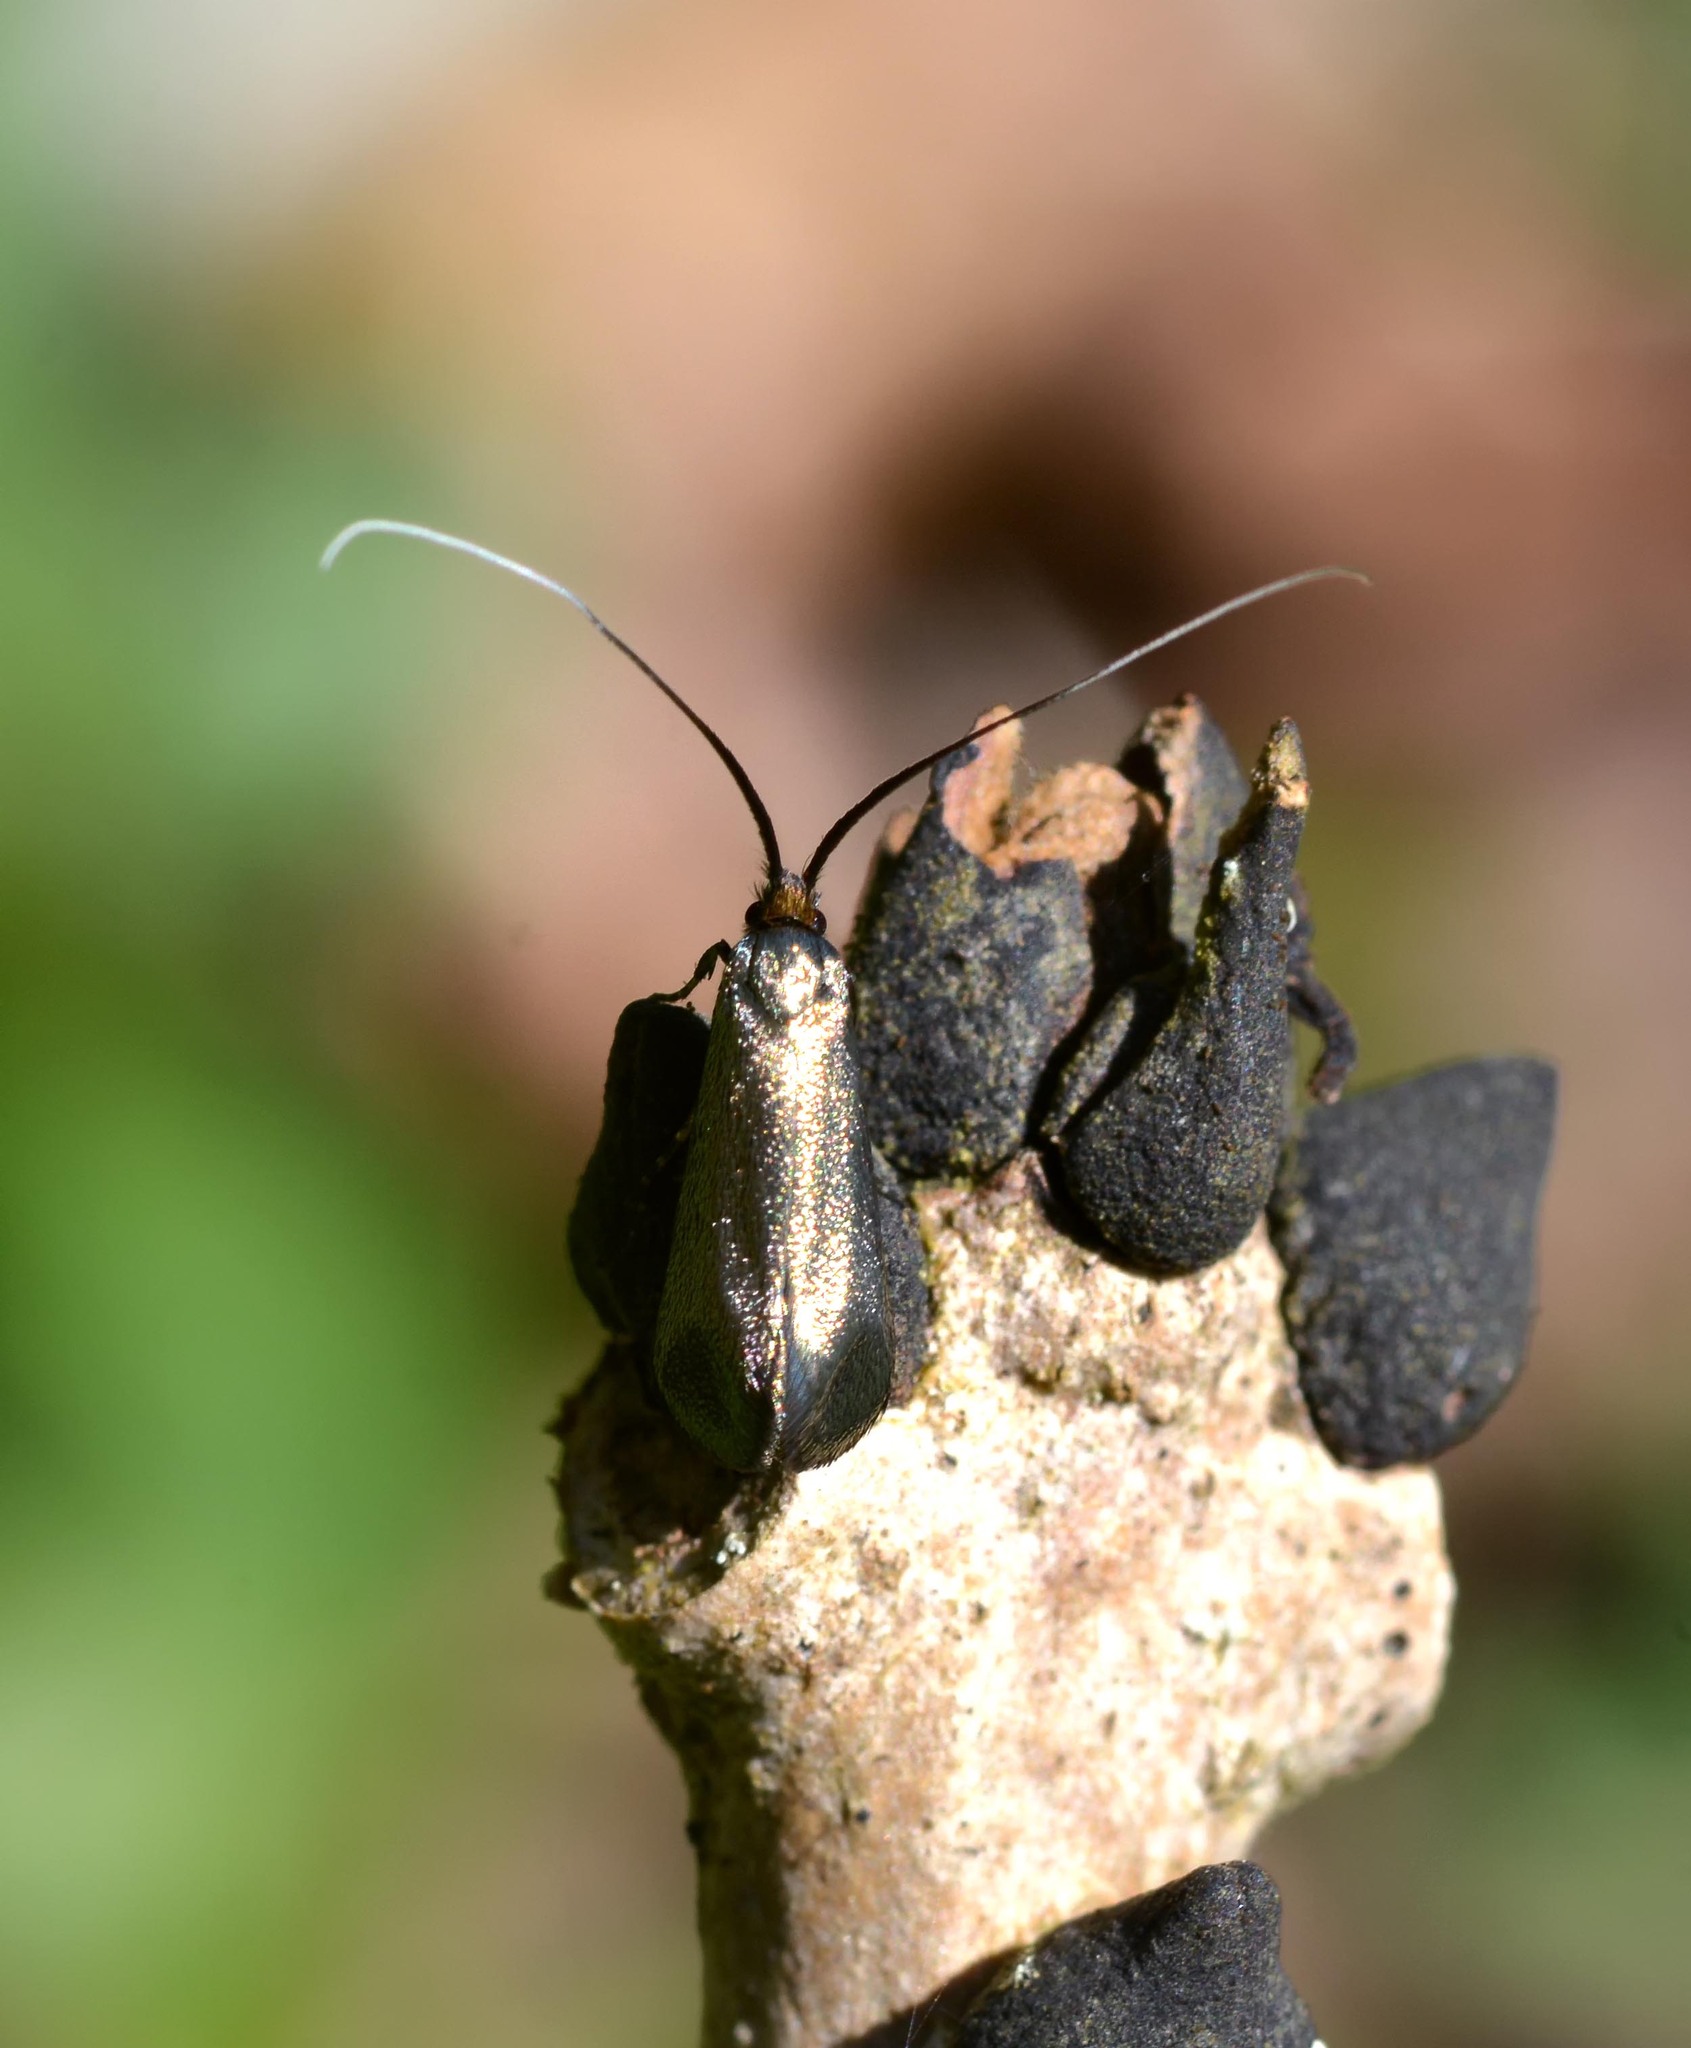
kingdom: Animalia
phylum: Arthropoda
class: Insecta
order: Lepidoptera
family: Adelidae
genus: Adela
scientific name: Adela viridella
